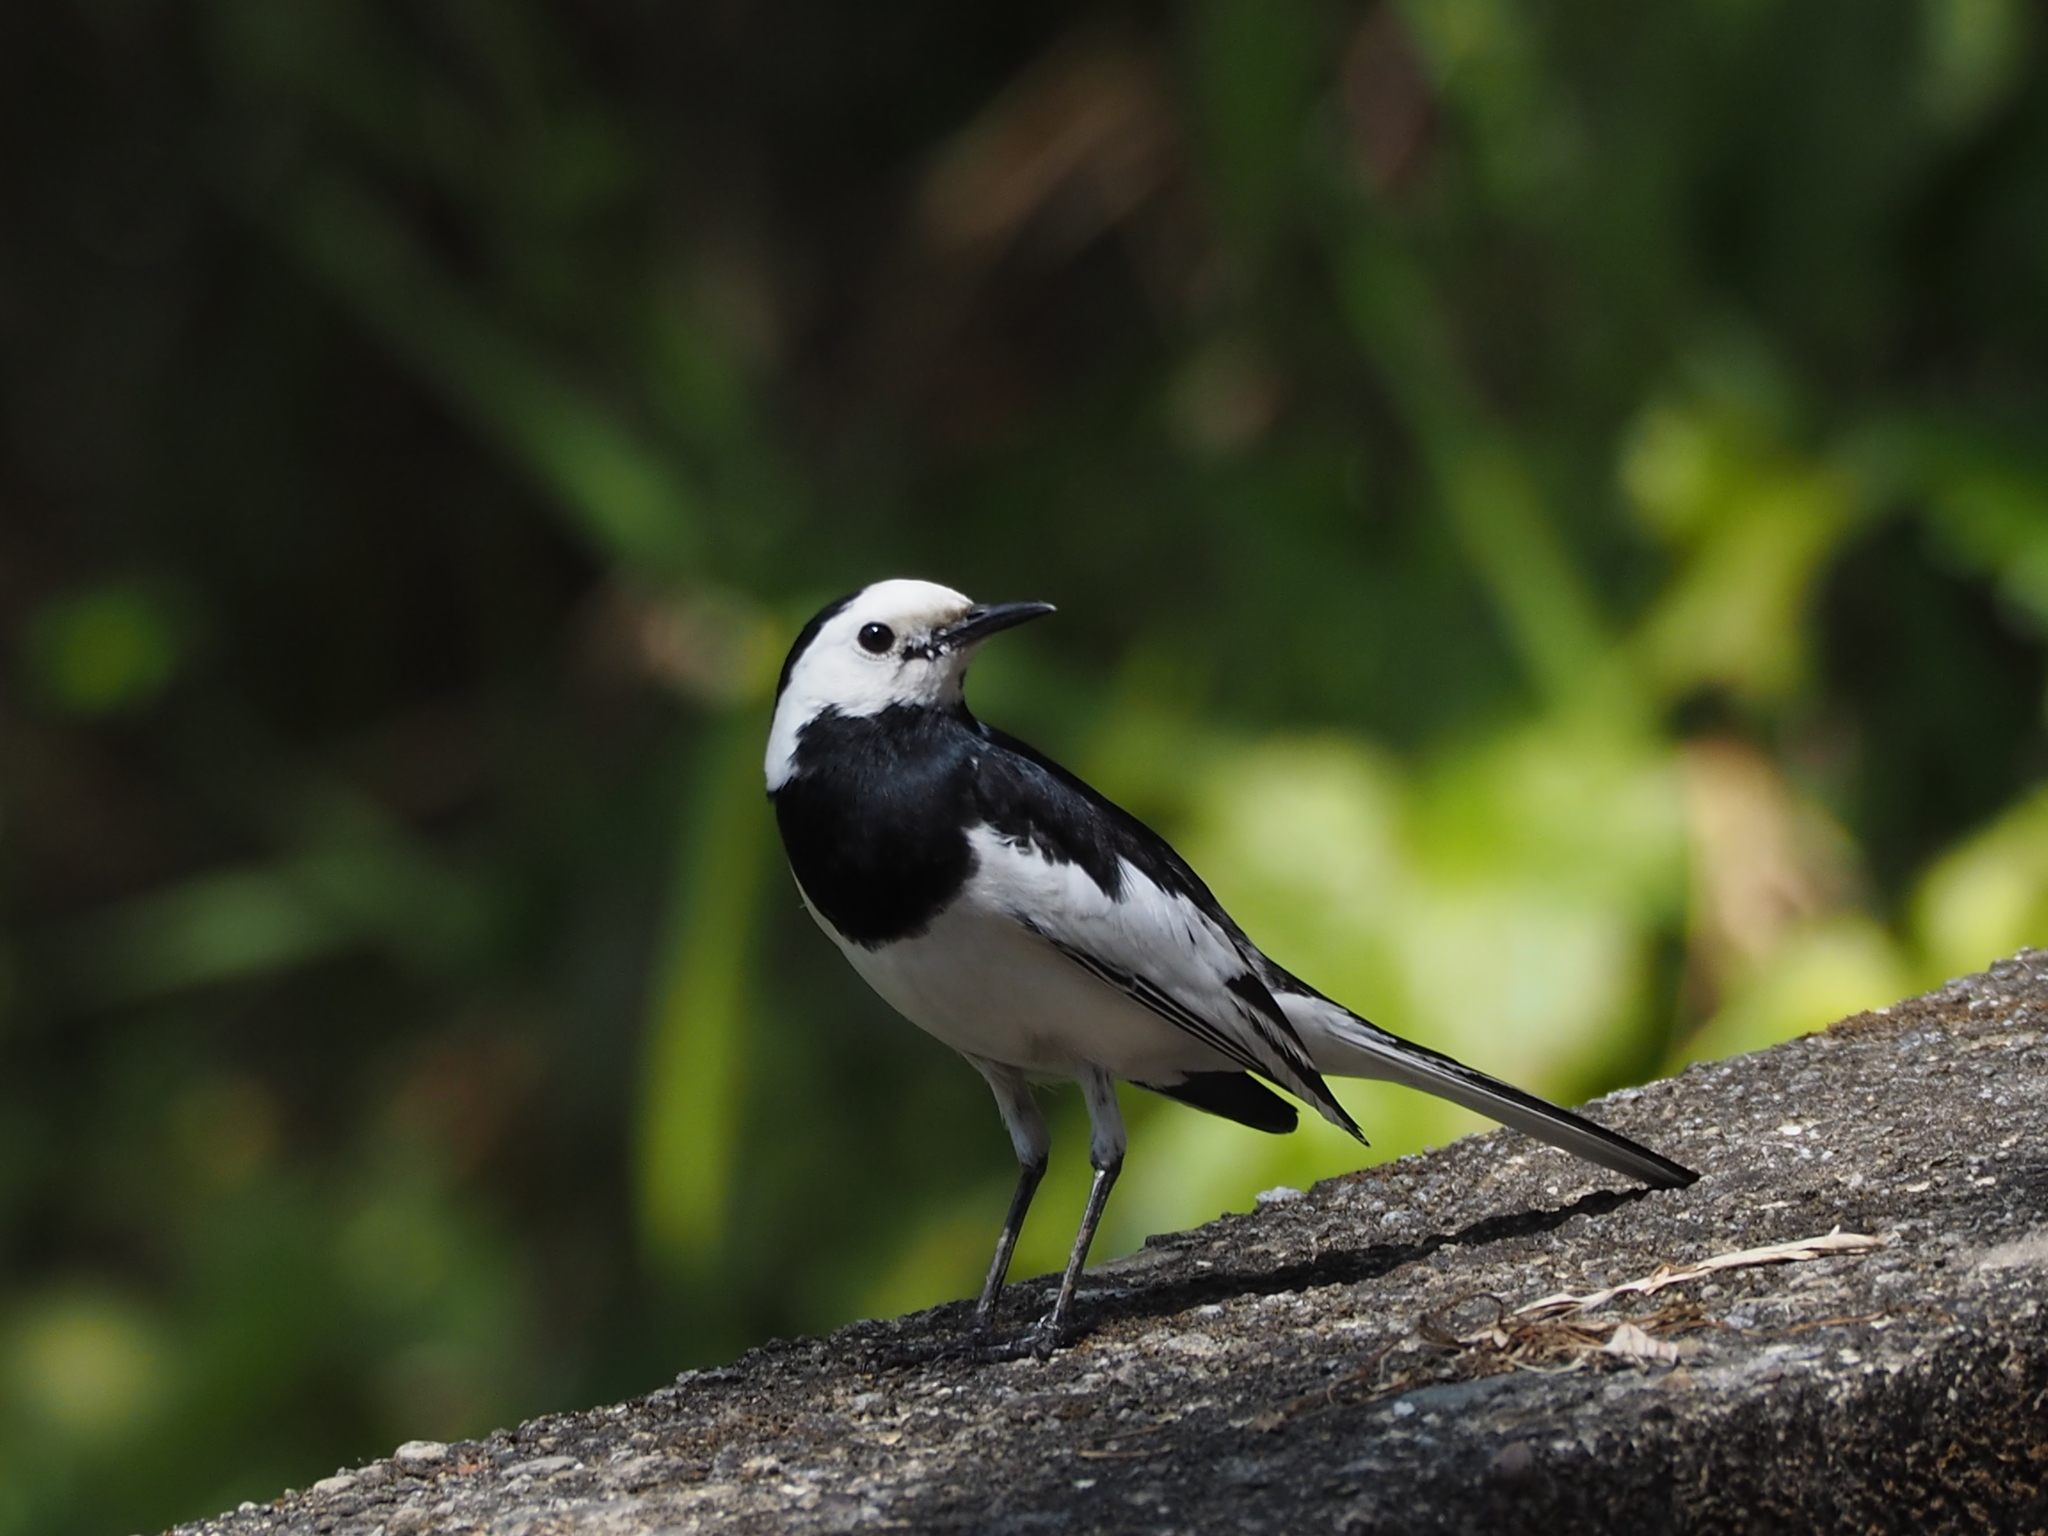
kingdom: Animalia
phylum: Chordata
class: Aves
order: Passeriformes
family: Motacillidae
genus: Motacilla
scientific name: Motacilla alba
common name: White wagtail
